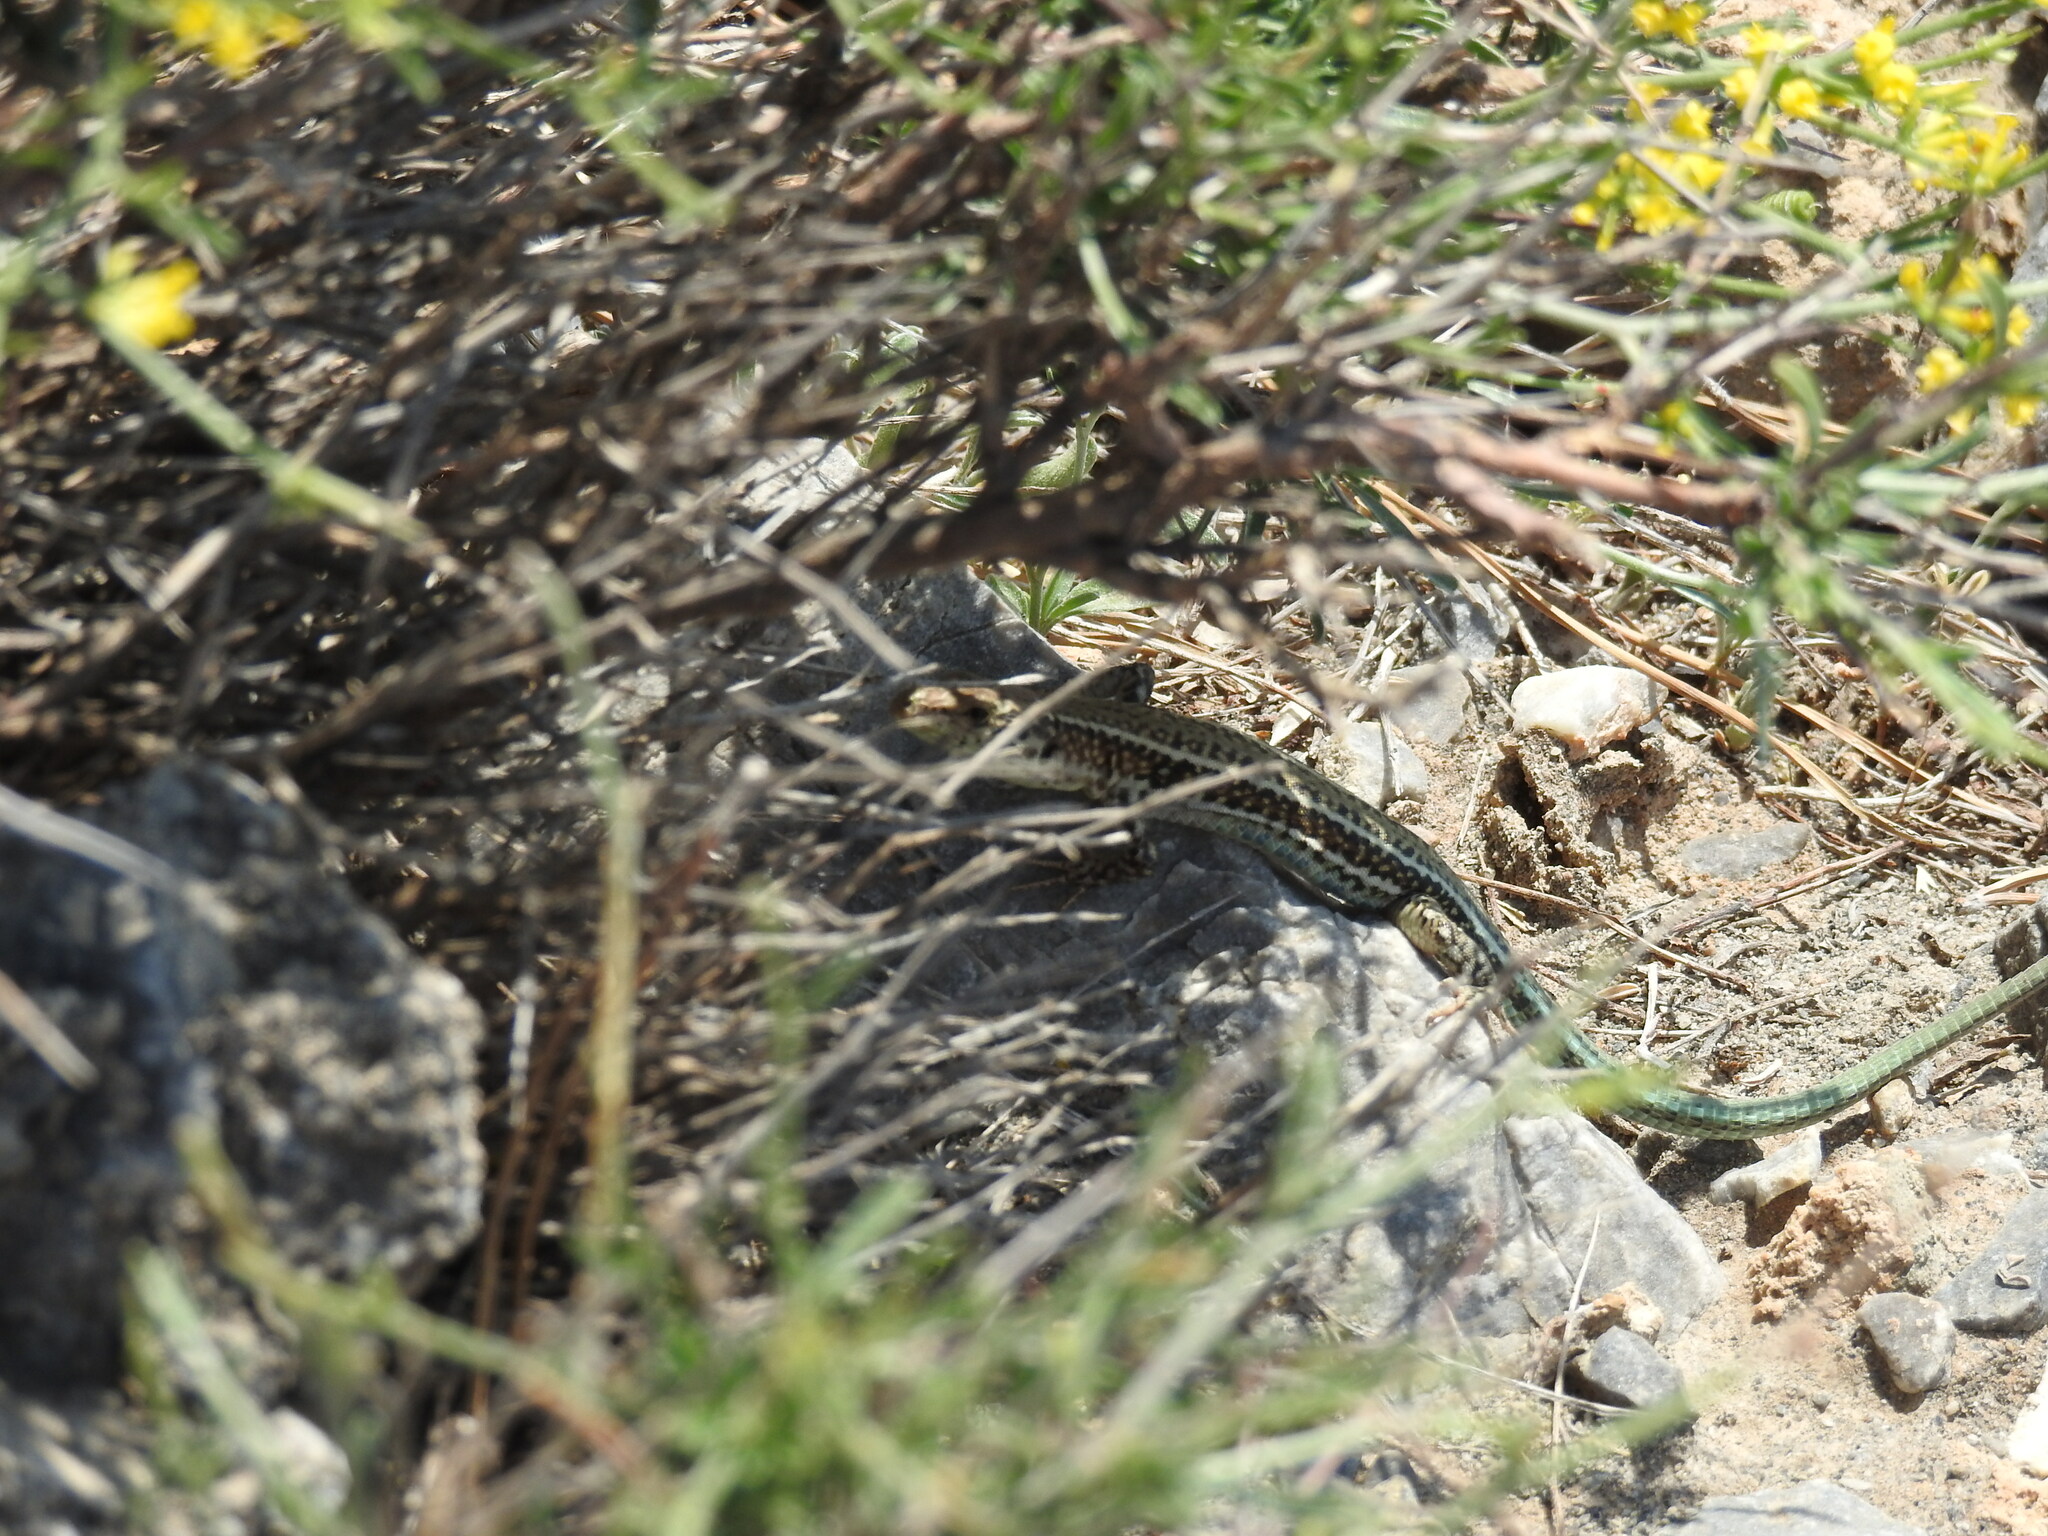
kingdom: Animalia
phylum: Chordata
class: Squamata
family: Lacertidae
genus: Podarcis
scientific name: Podarcis cretensis
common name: Cretan wall lizard
